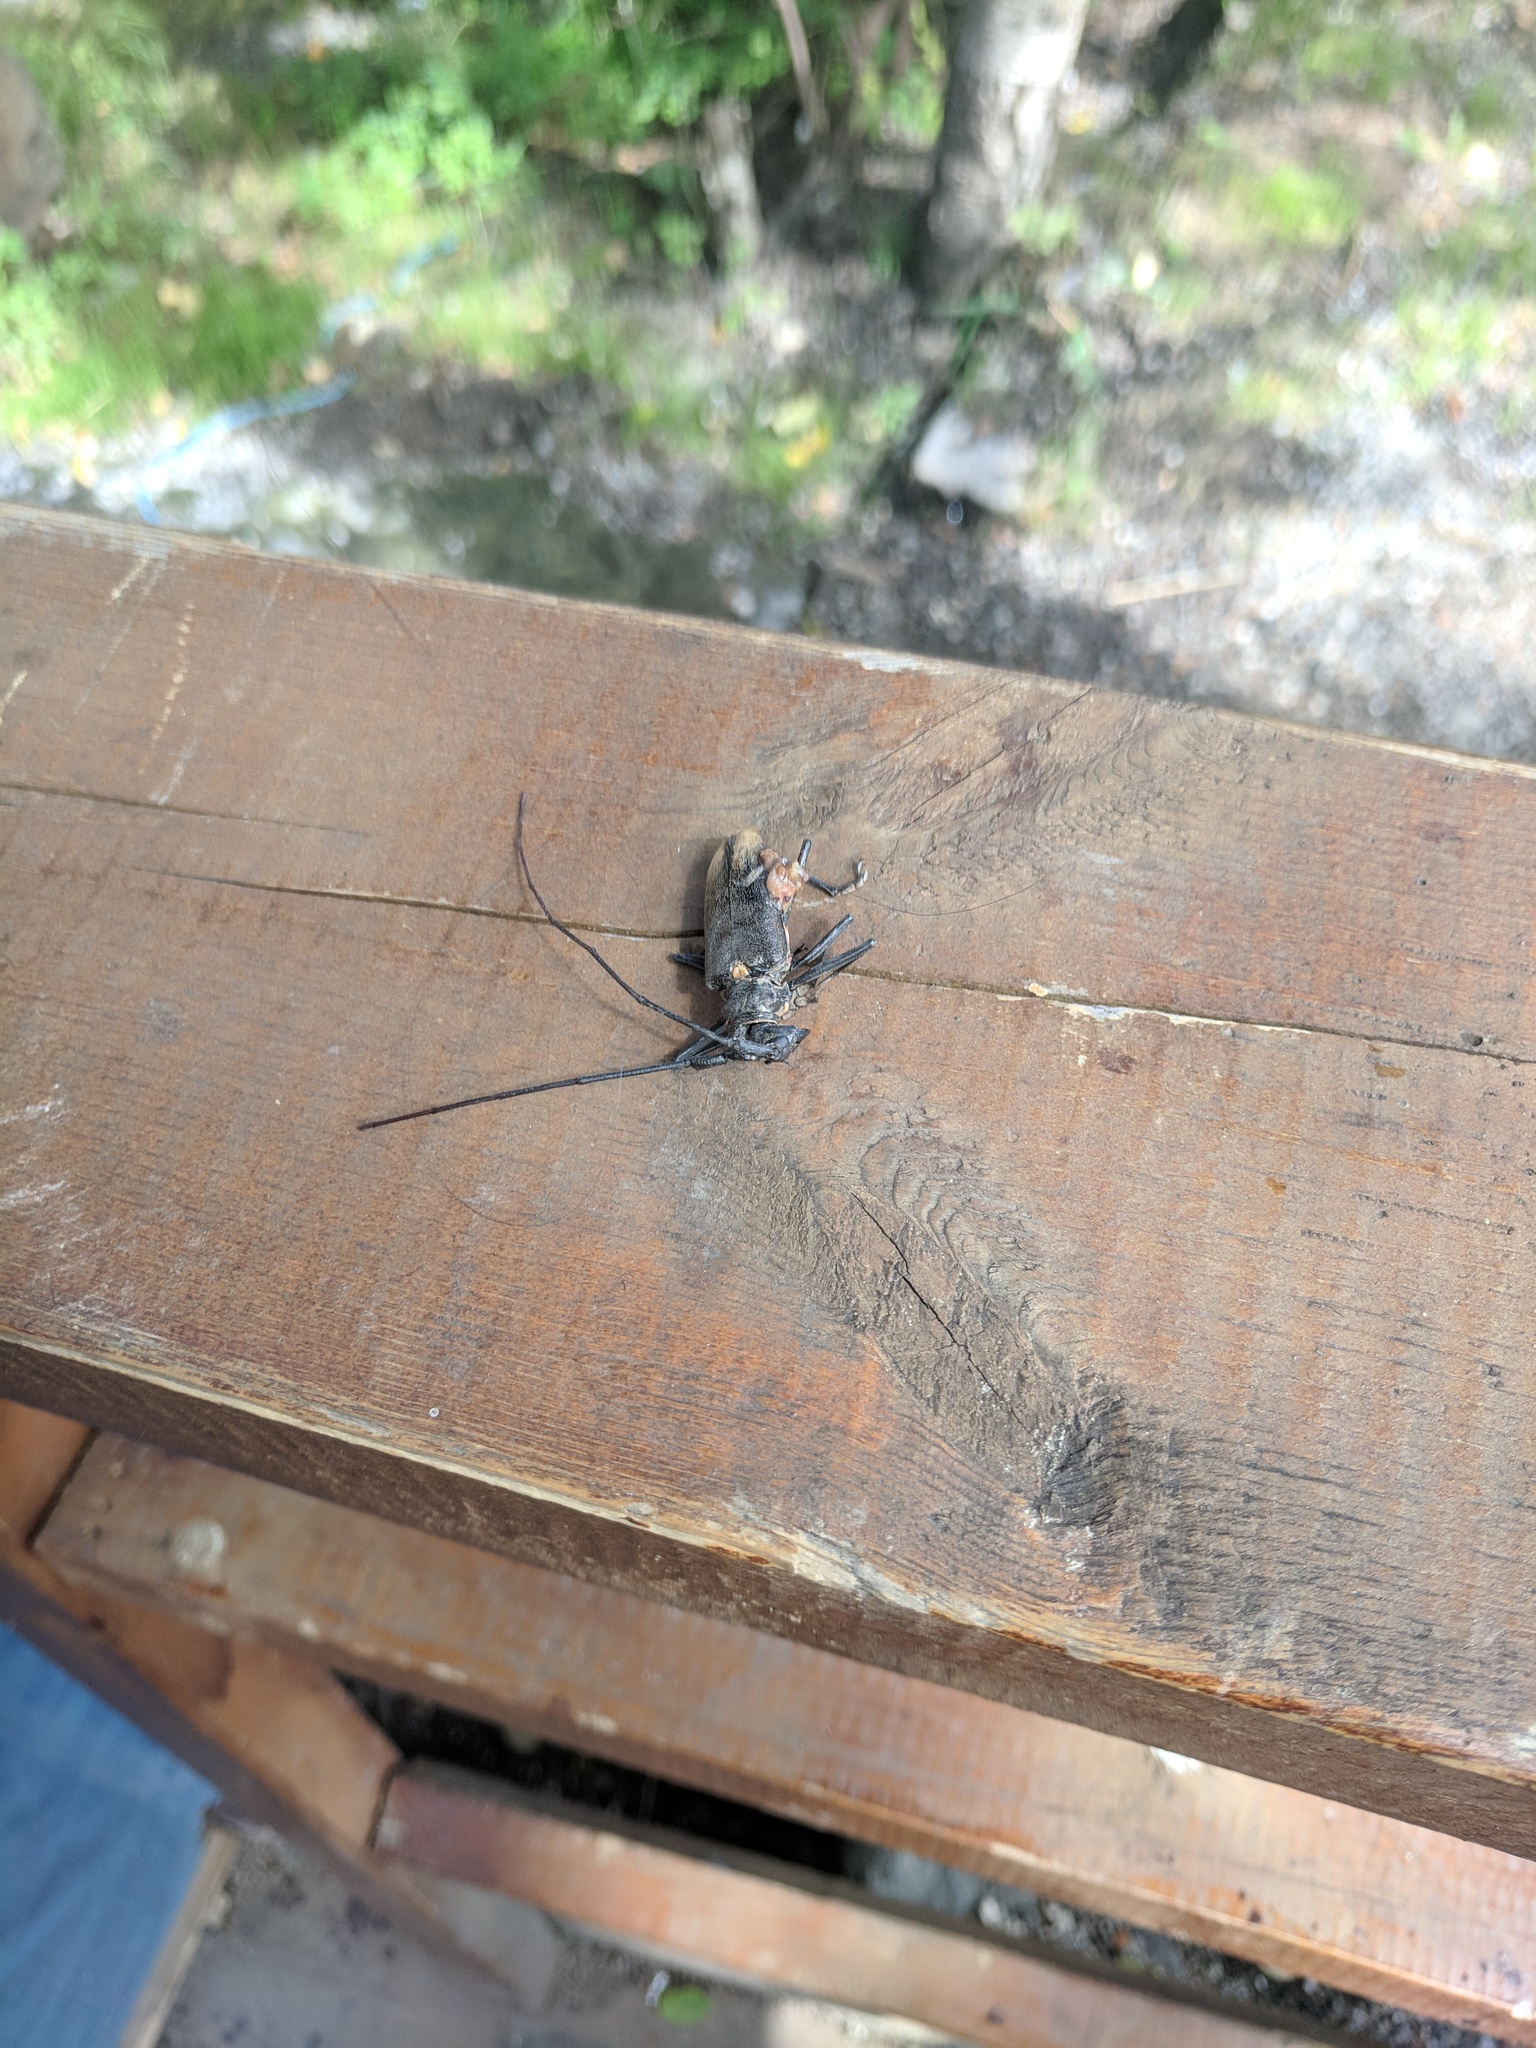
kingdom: Animalia
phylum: Arthropoda
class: Insecta
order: Coleoptera
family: Cerambycidae
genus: Monochamus
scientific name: Monochamus urussovii
